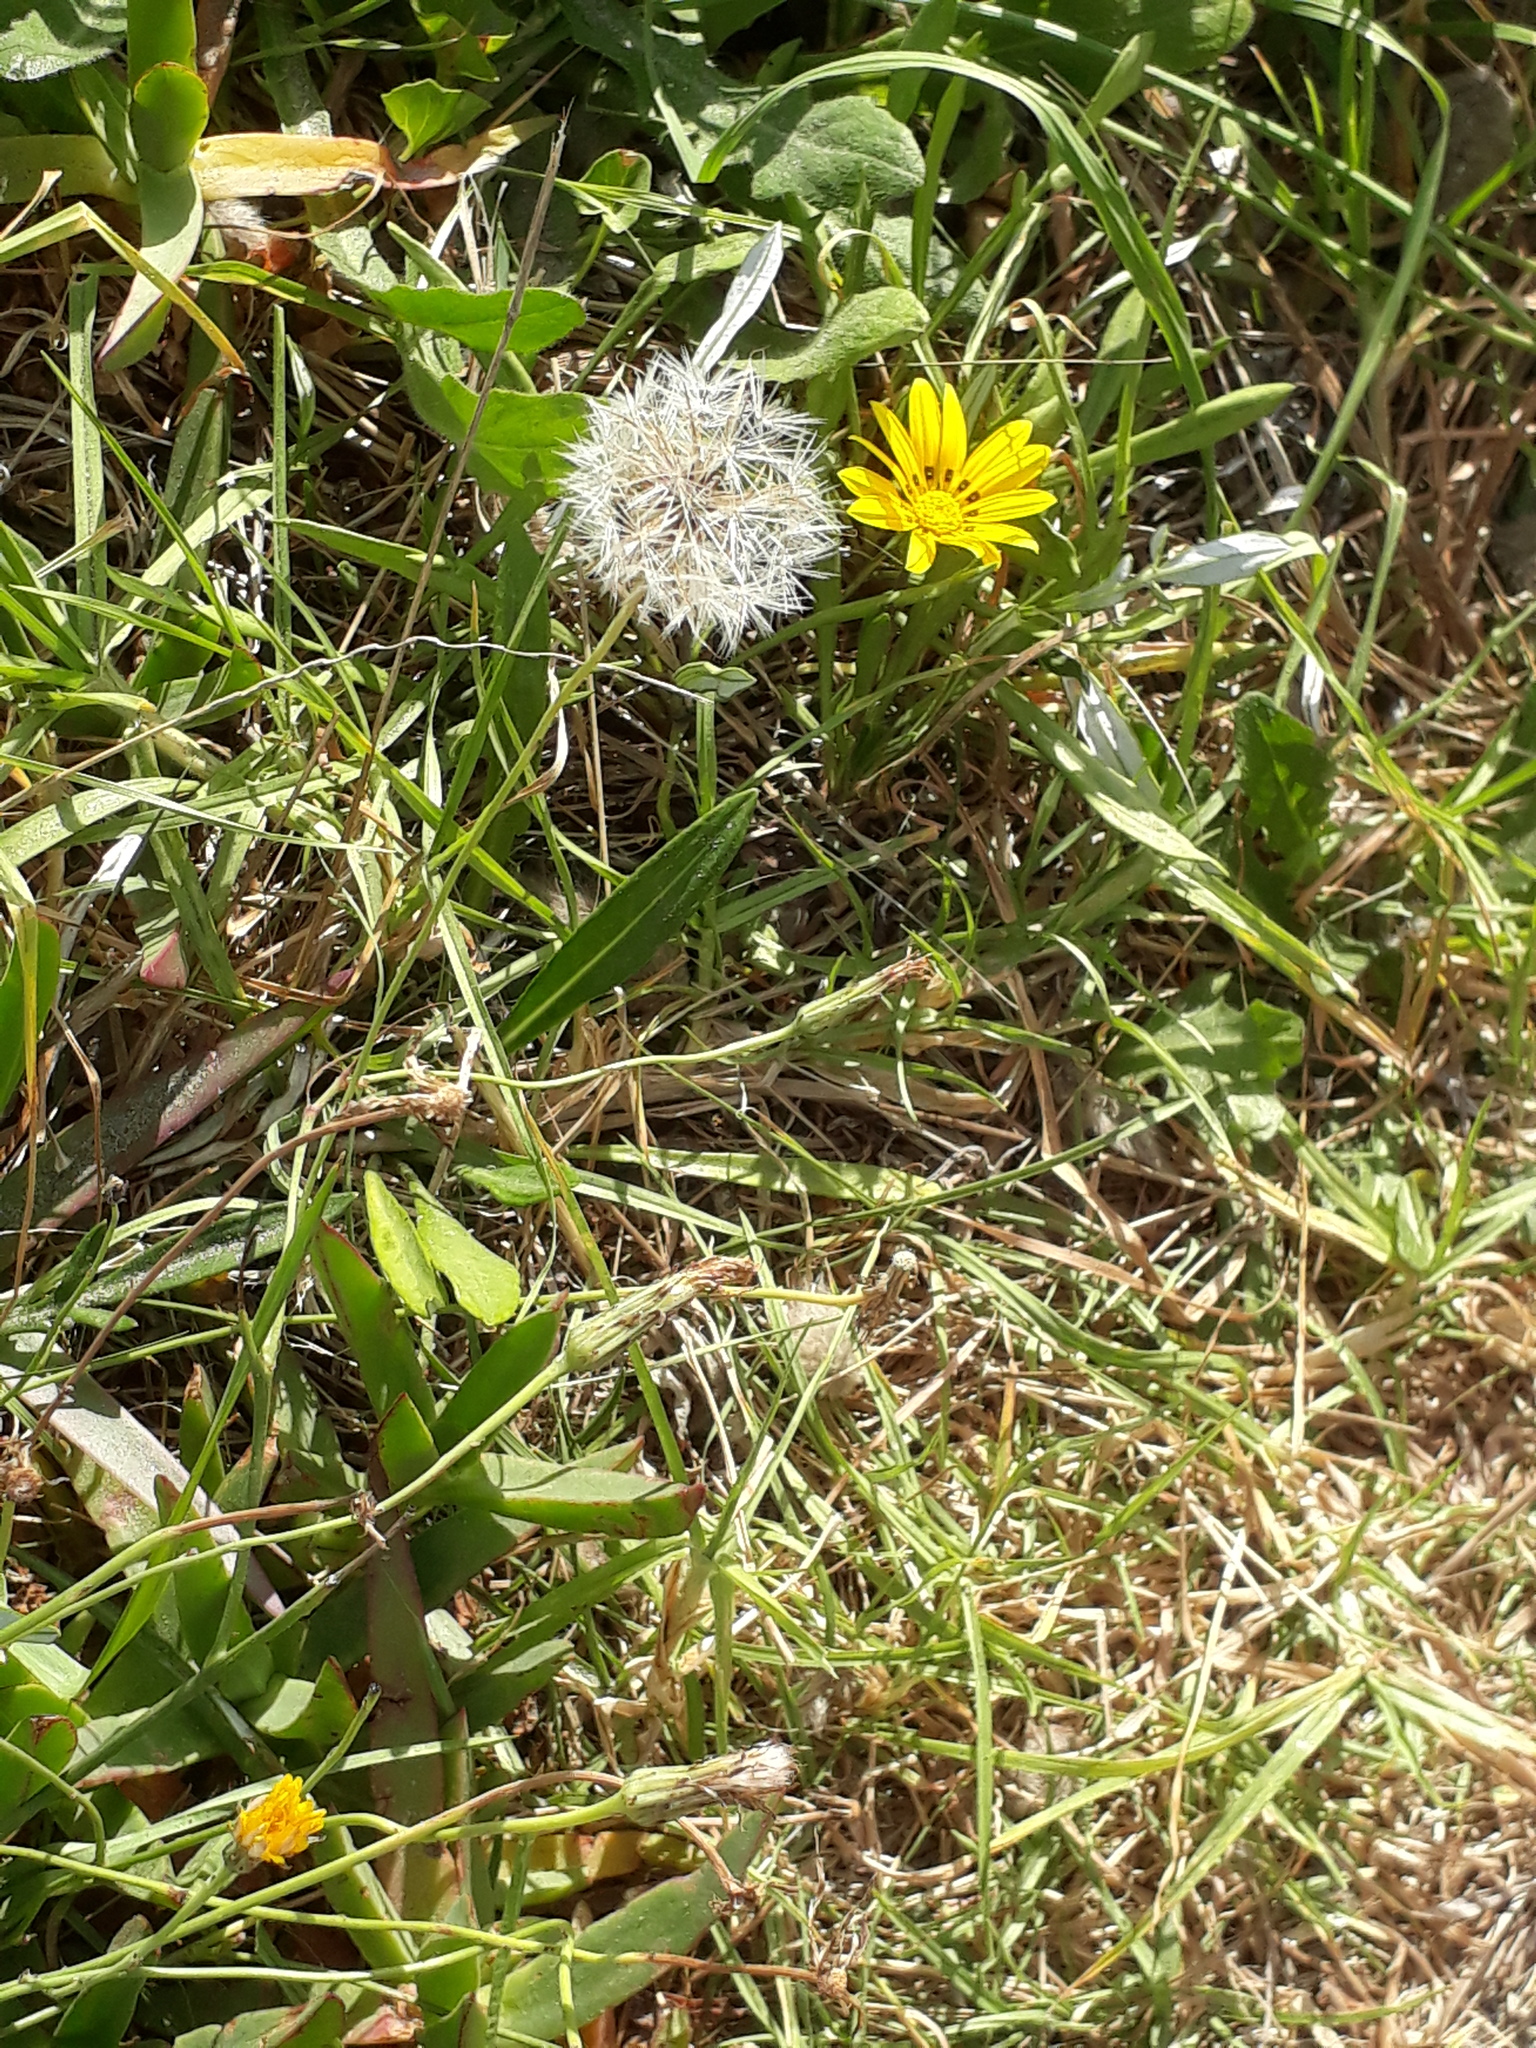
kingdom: Plantae
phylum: Tracheophyta
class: Magnoliopsida
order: Asterales
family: Asteraceae
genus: Taraxacum
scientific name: Taraxacum officinale
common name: Common dandelion
